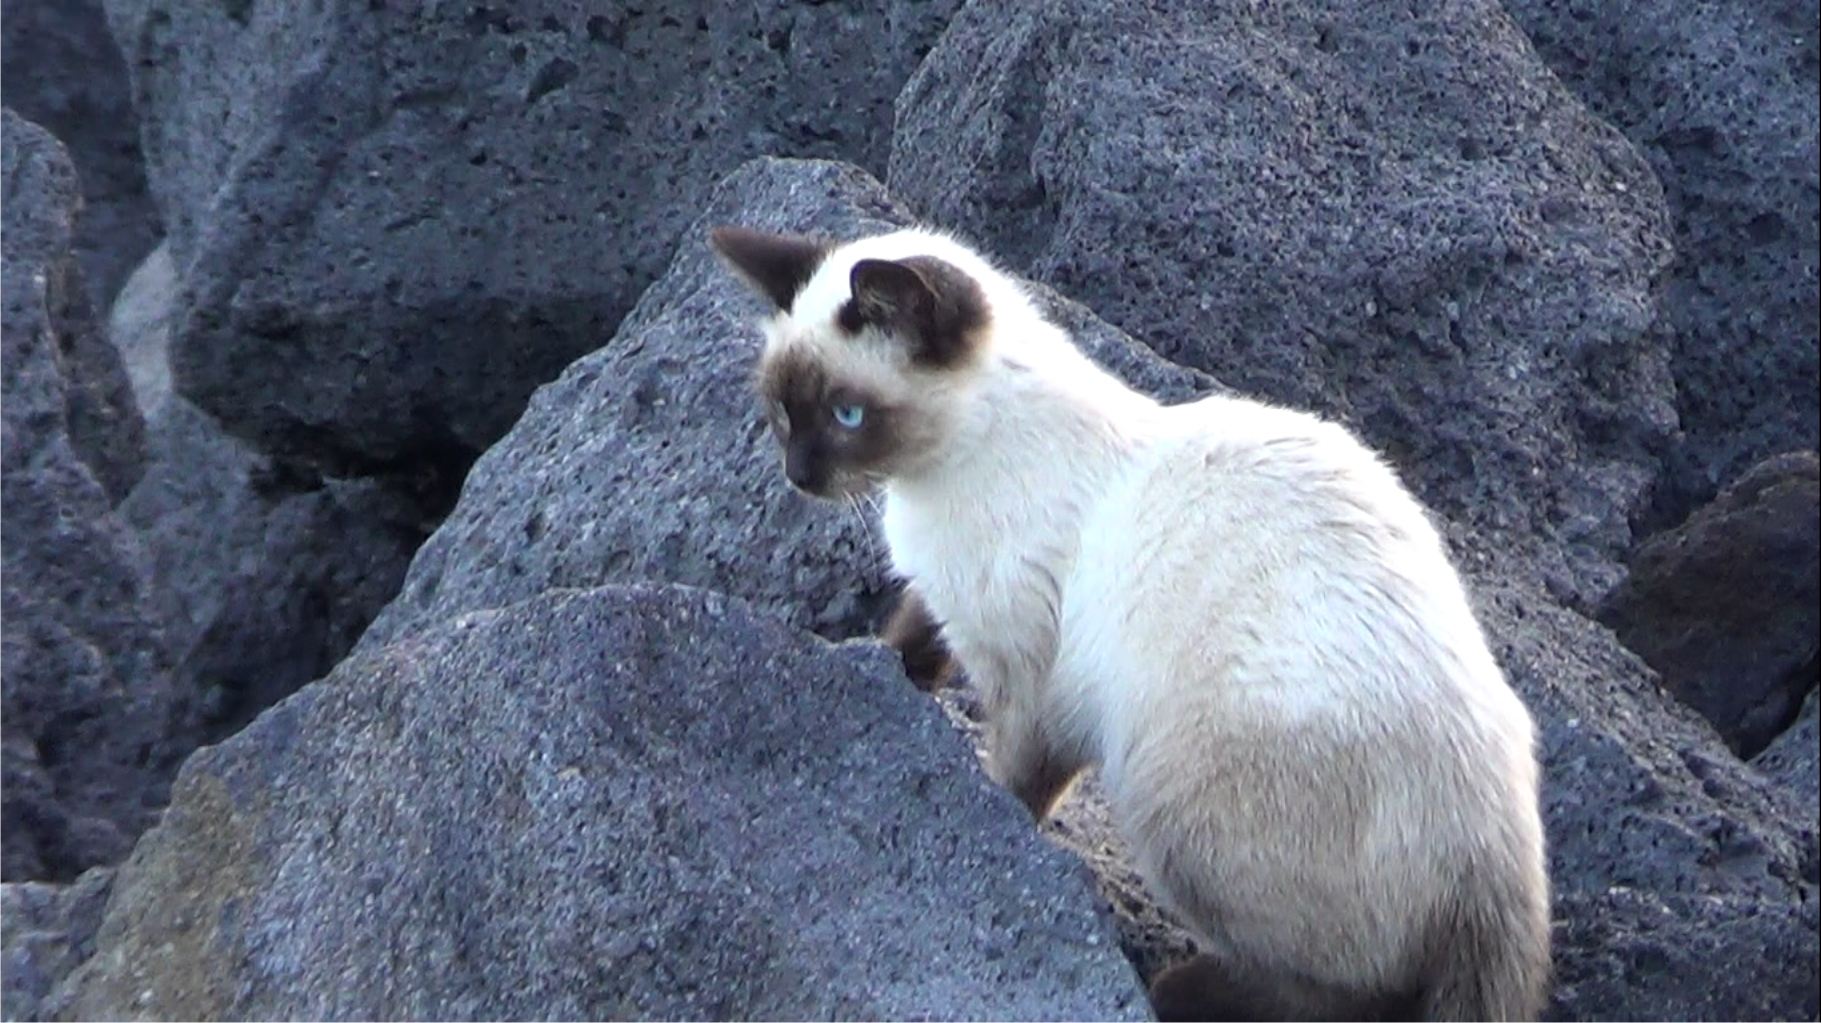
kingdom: Animalia
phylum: Chordata
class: Mammalia
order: Carnivora
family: Felidae
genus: Felis
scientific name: Felis catus
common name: Domestic cat
